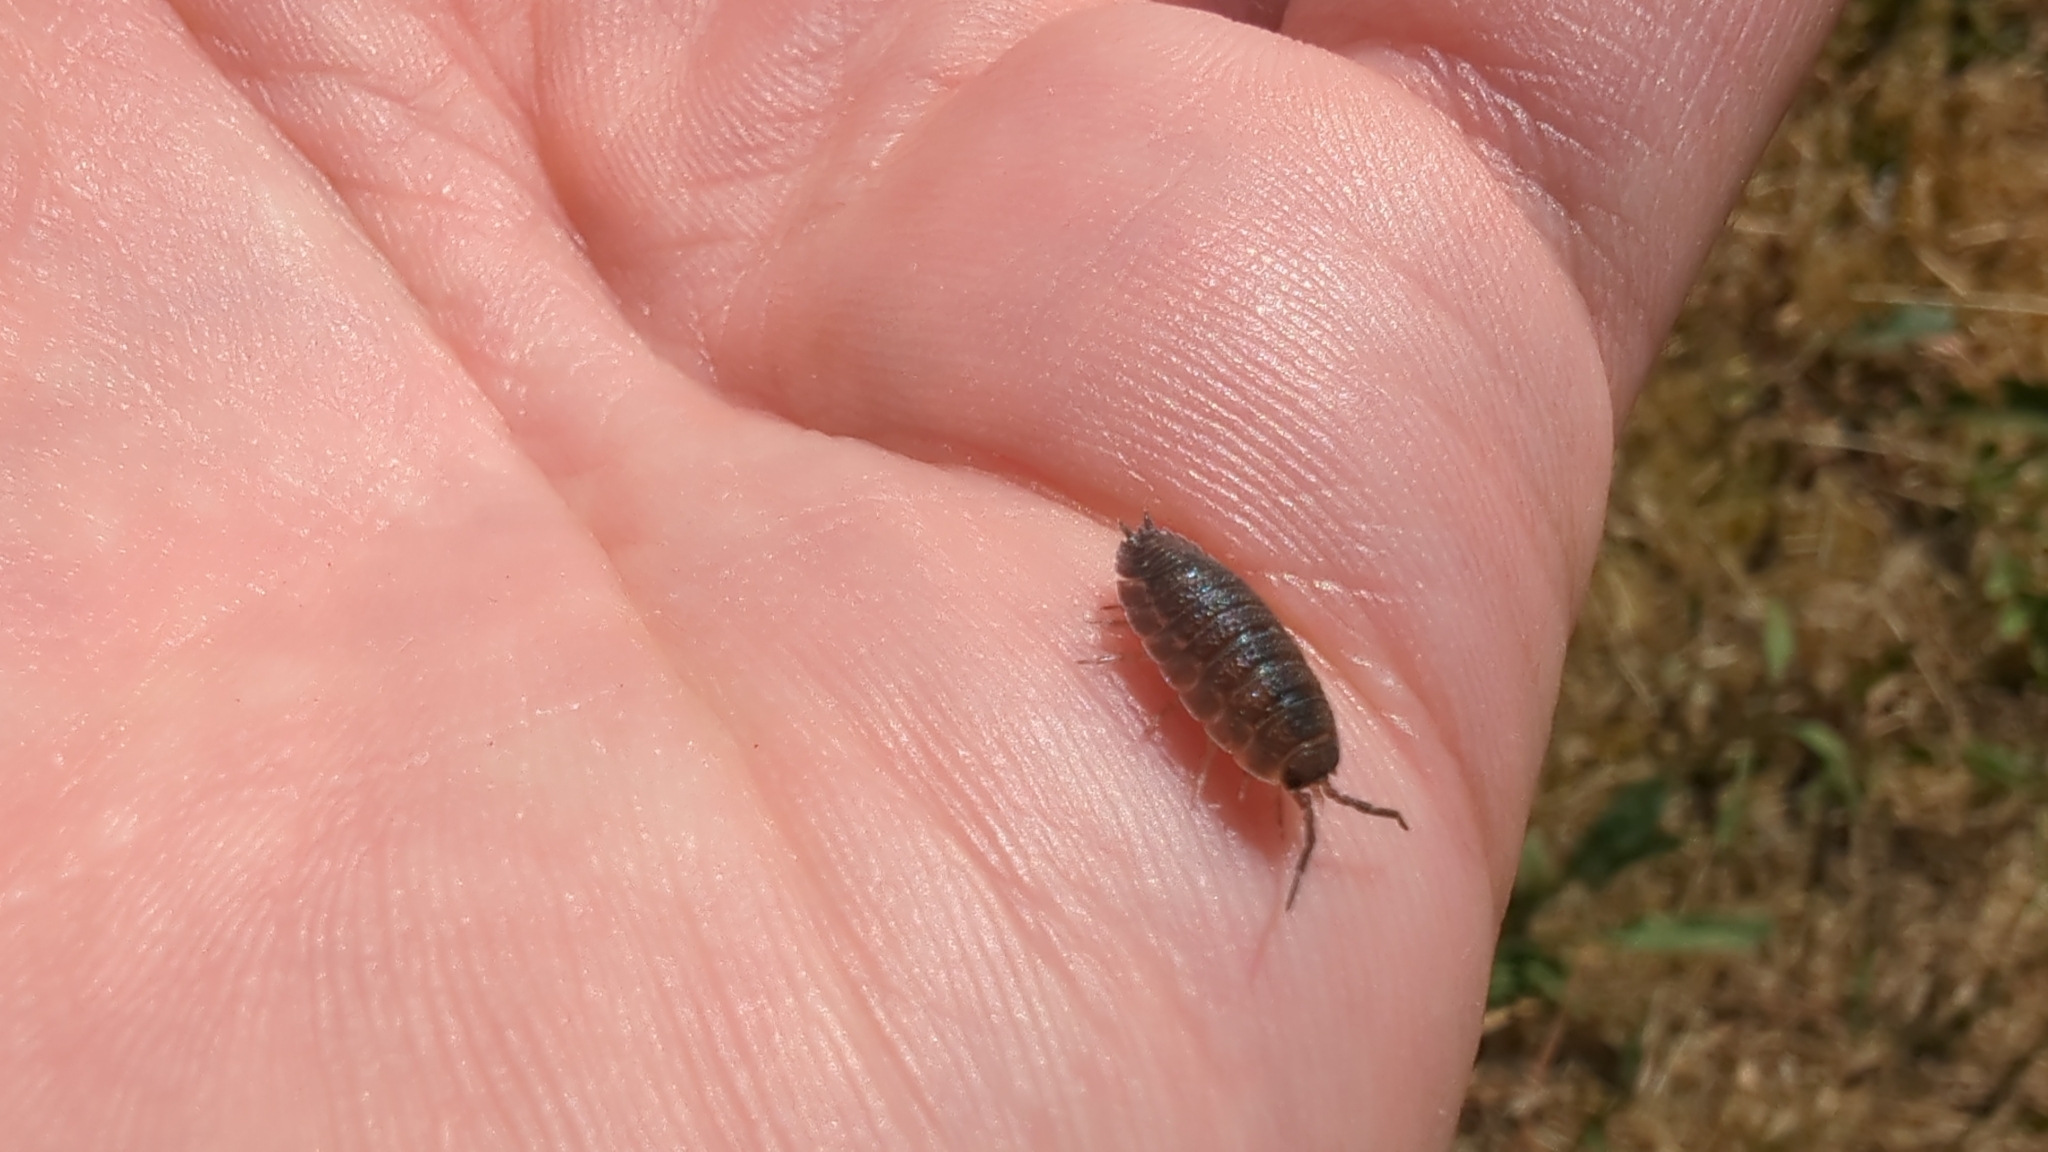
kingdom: Animalia
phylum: Arthropoda
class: Malacostraca
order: Isopoda
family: Porcellionidae
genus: Porcellio
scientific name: Porcellio scaber
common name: Common rough woodlouse
